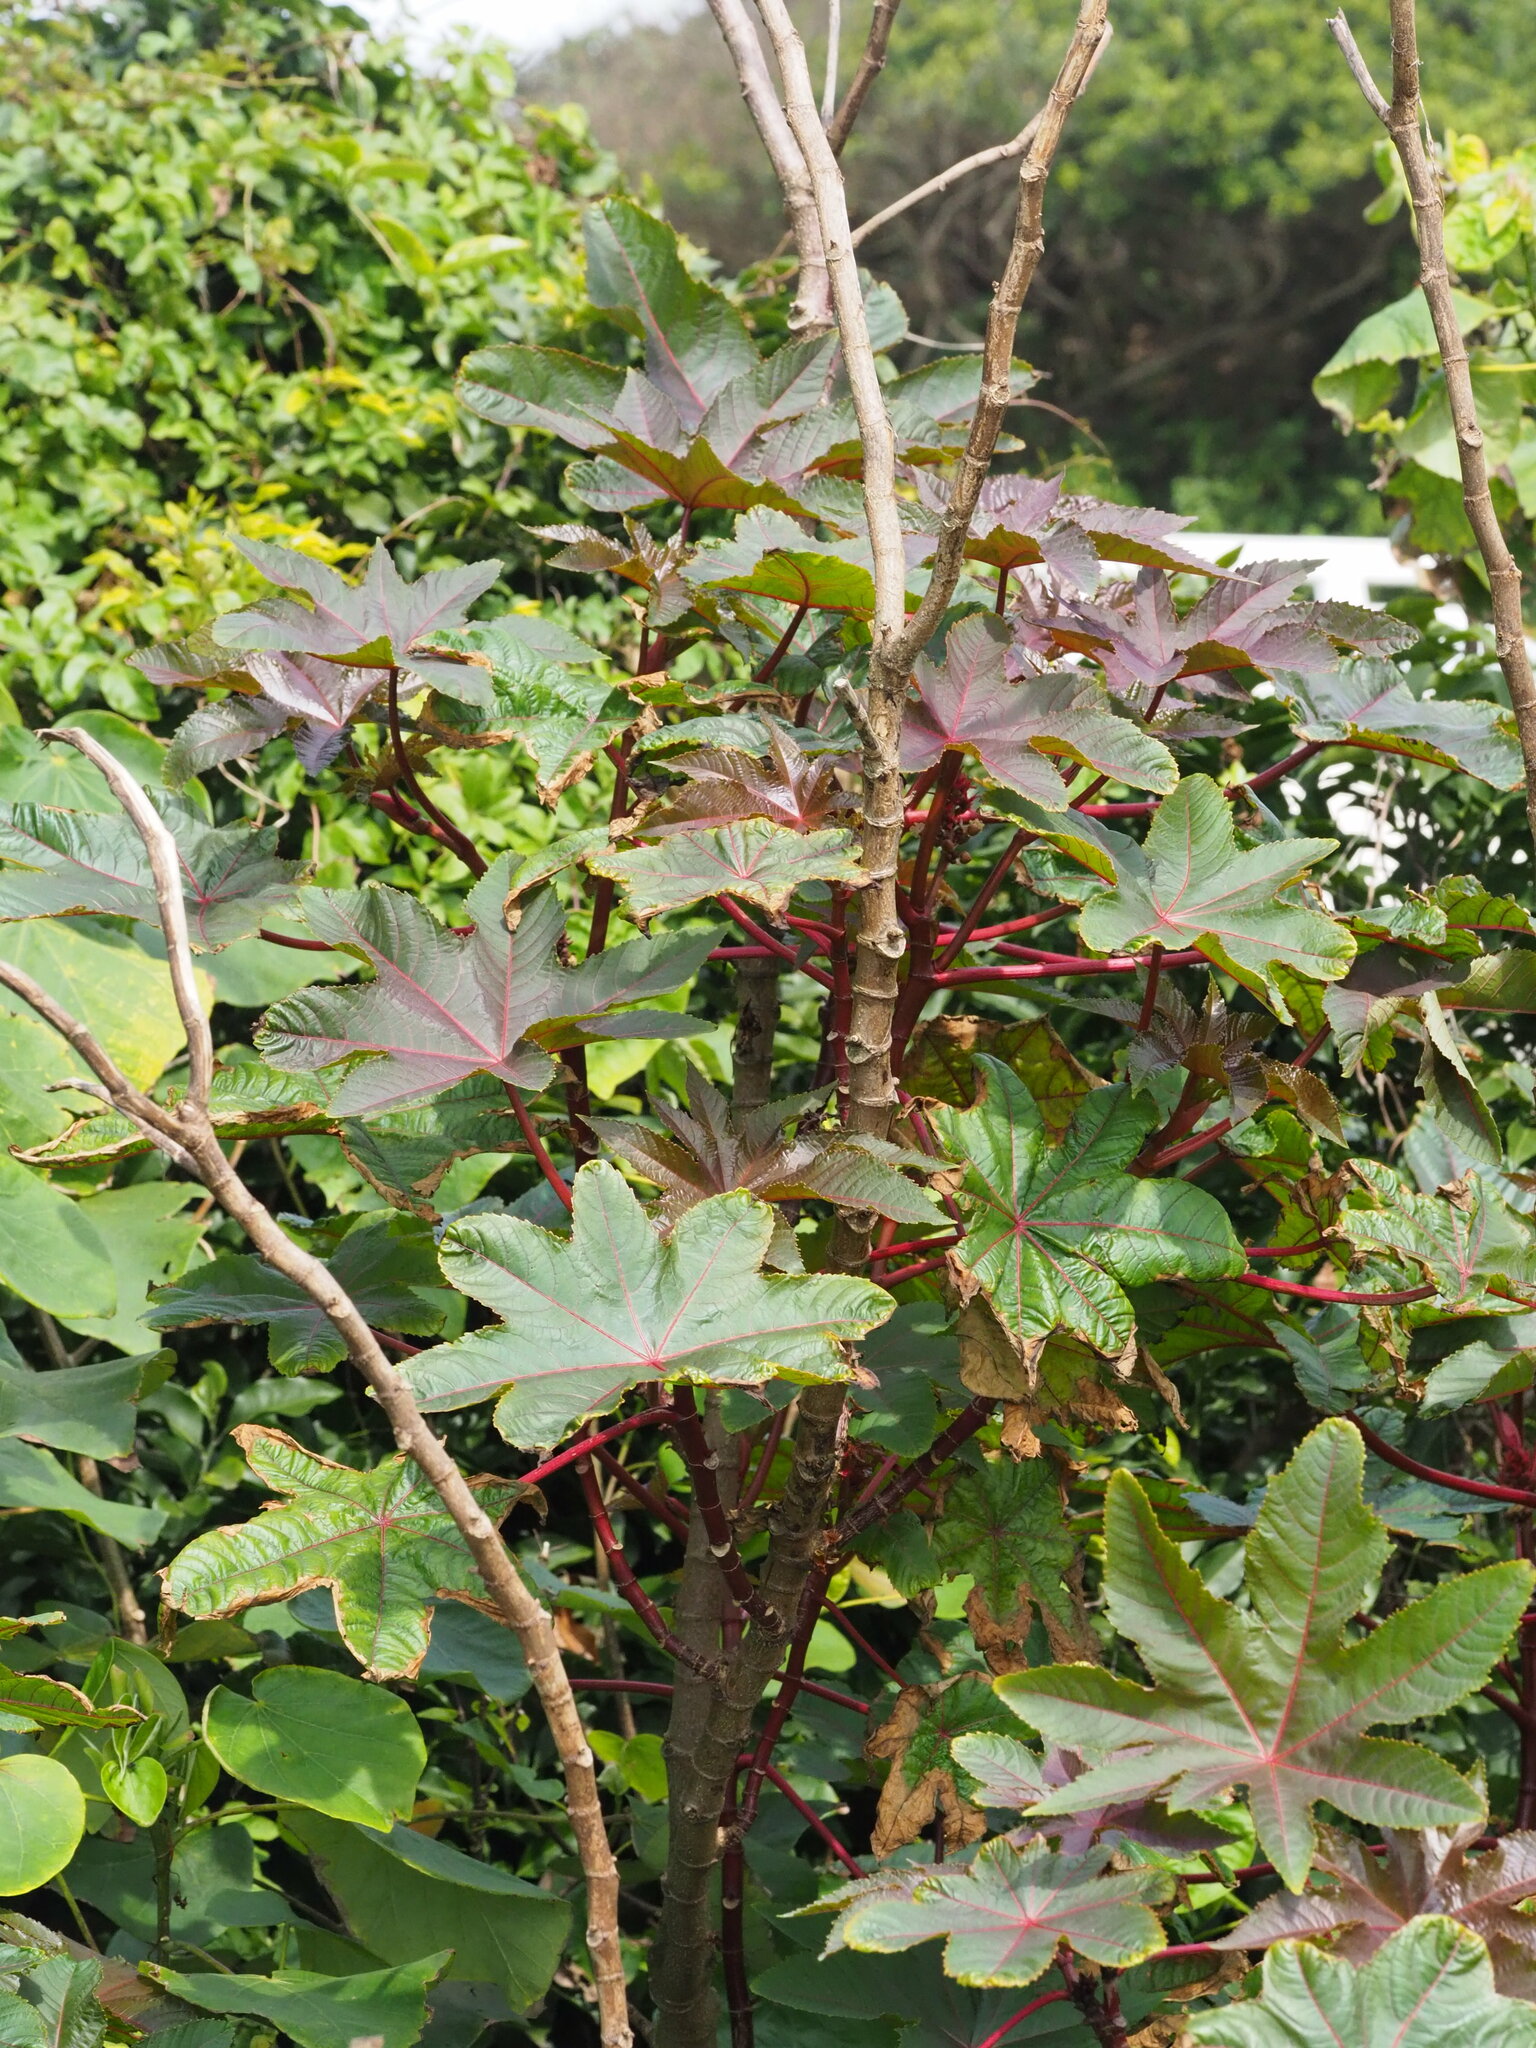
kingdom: Plantae
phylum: Tracheophyta
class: Magnoliopsida
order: Malpighiales
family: Euphorbiaceae
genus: Ricinus
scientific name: Ricinus communis
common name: Castor-oil-plant
